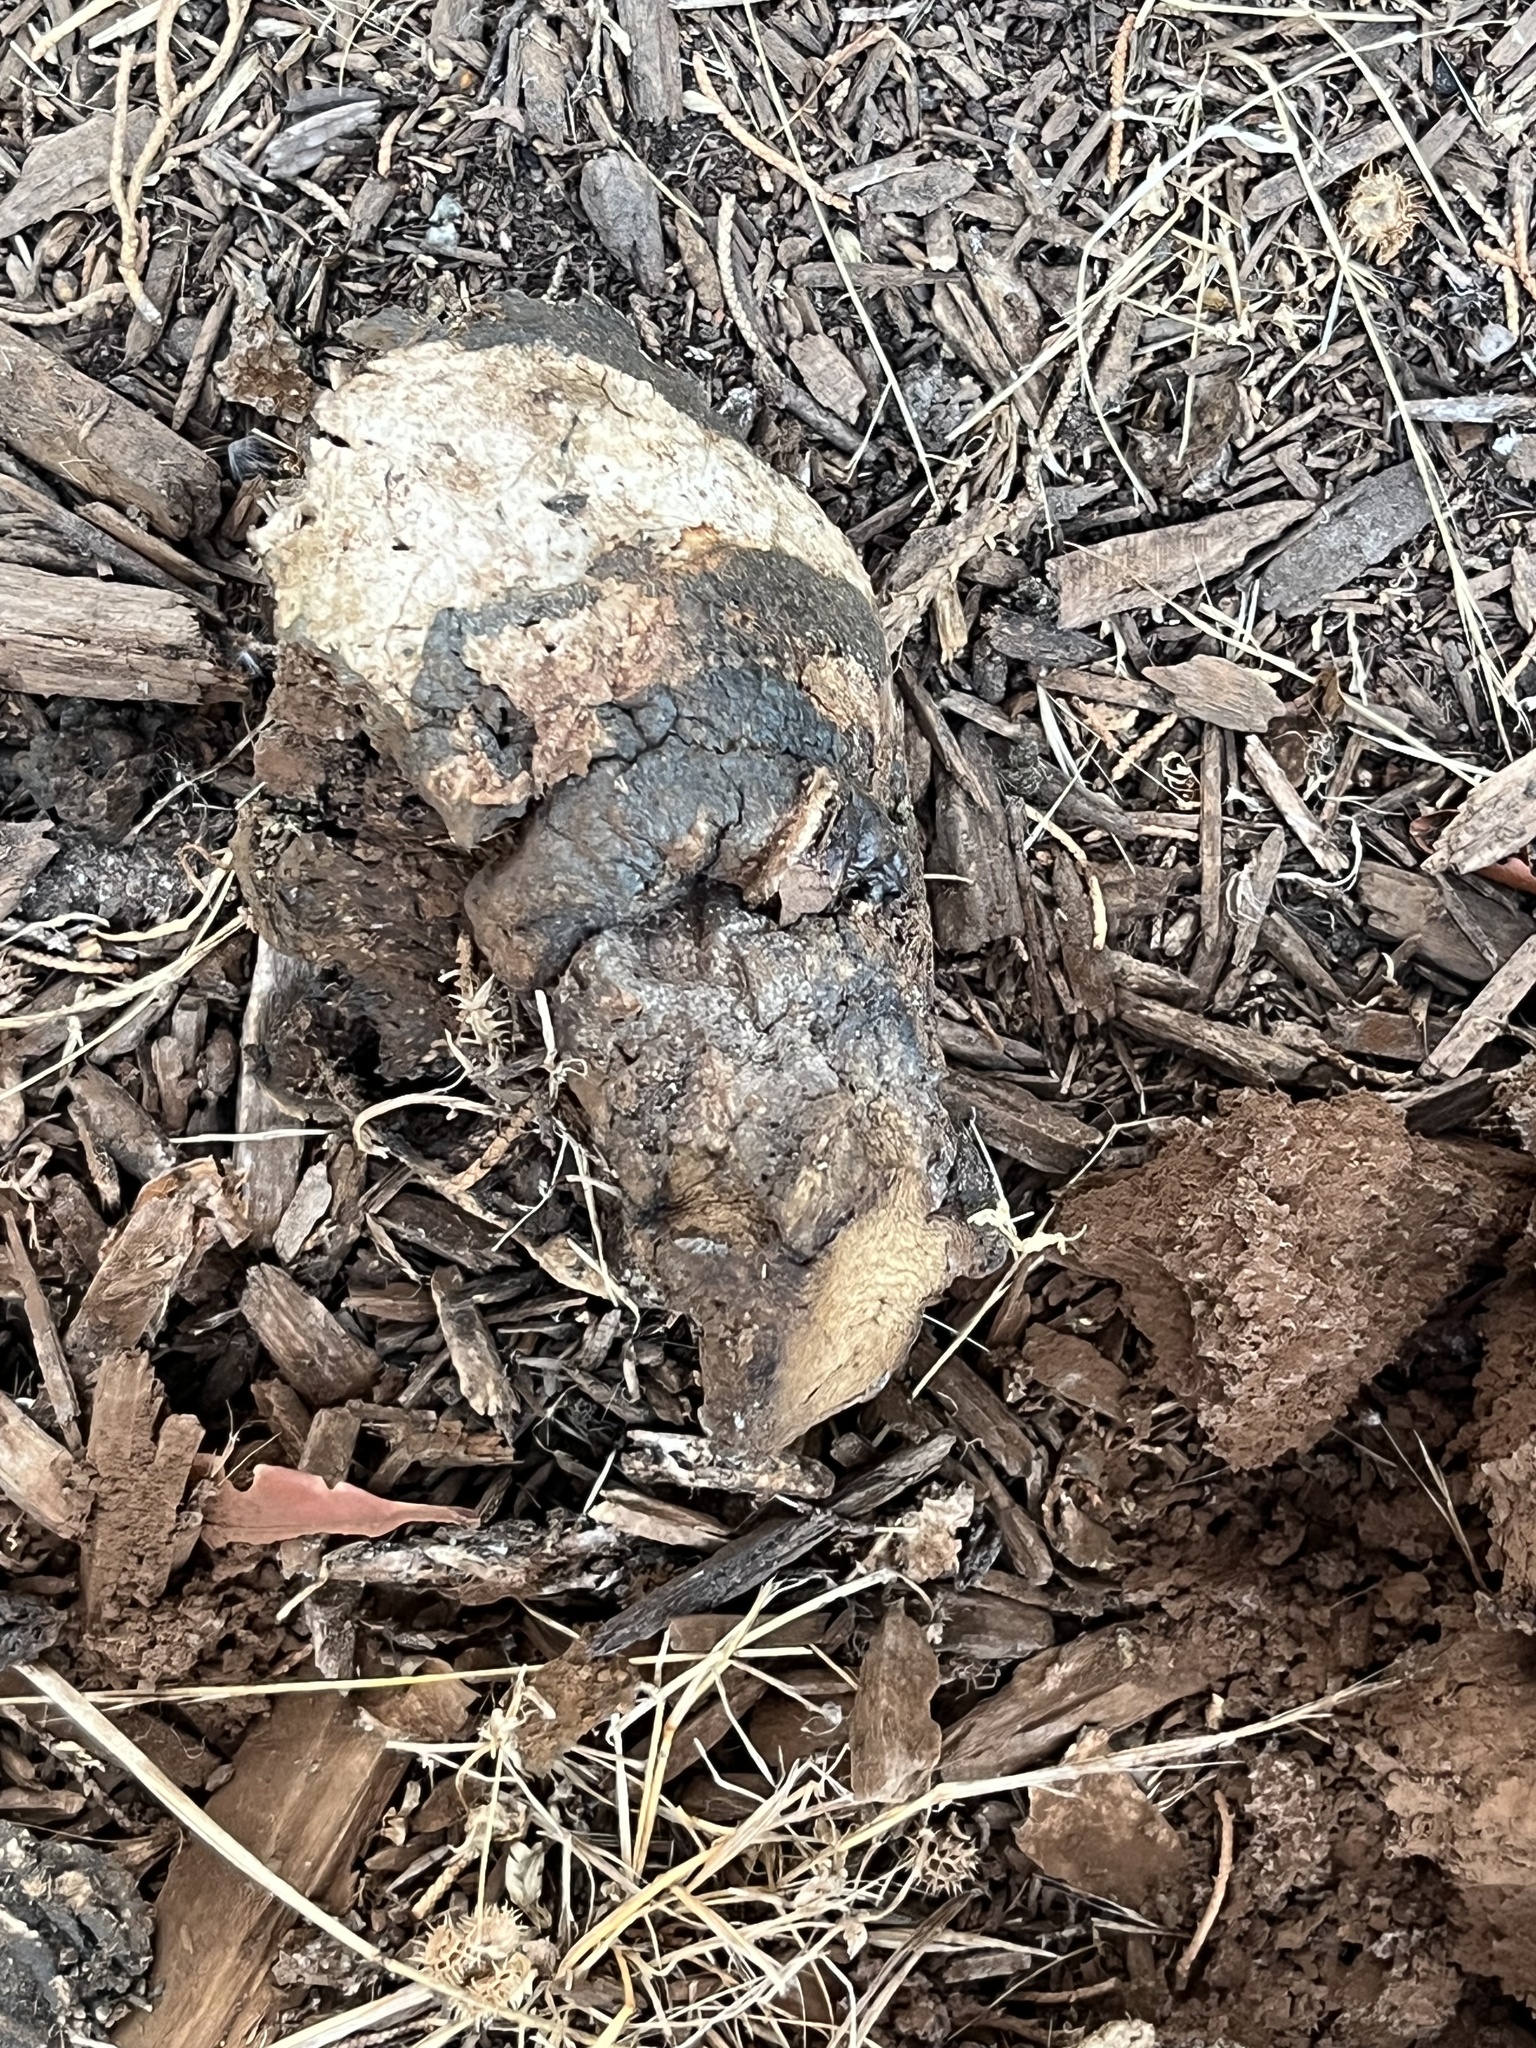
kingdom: Fungi
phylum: Basidiomycota
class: Agaricomycetes
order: Boletales
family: Sclerodermataceae
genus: Pisolithus
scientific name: Pisolithus tinctorius
